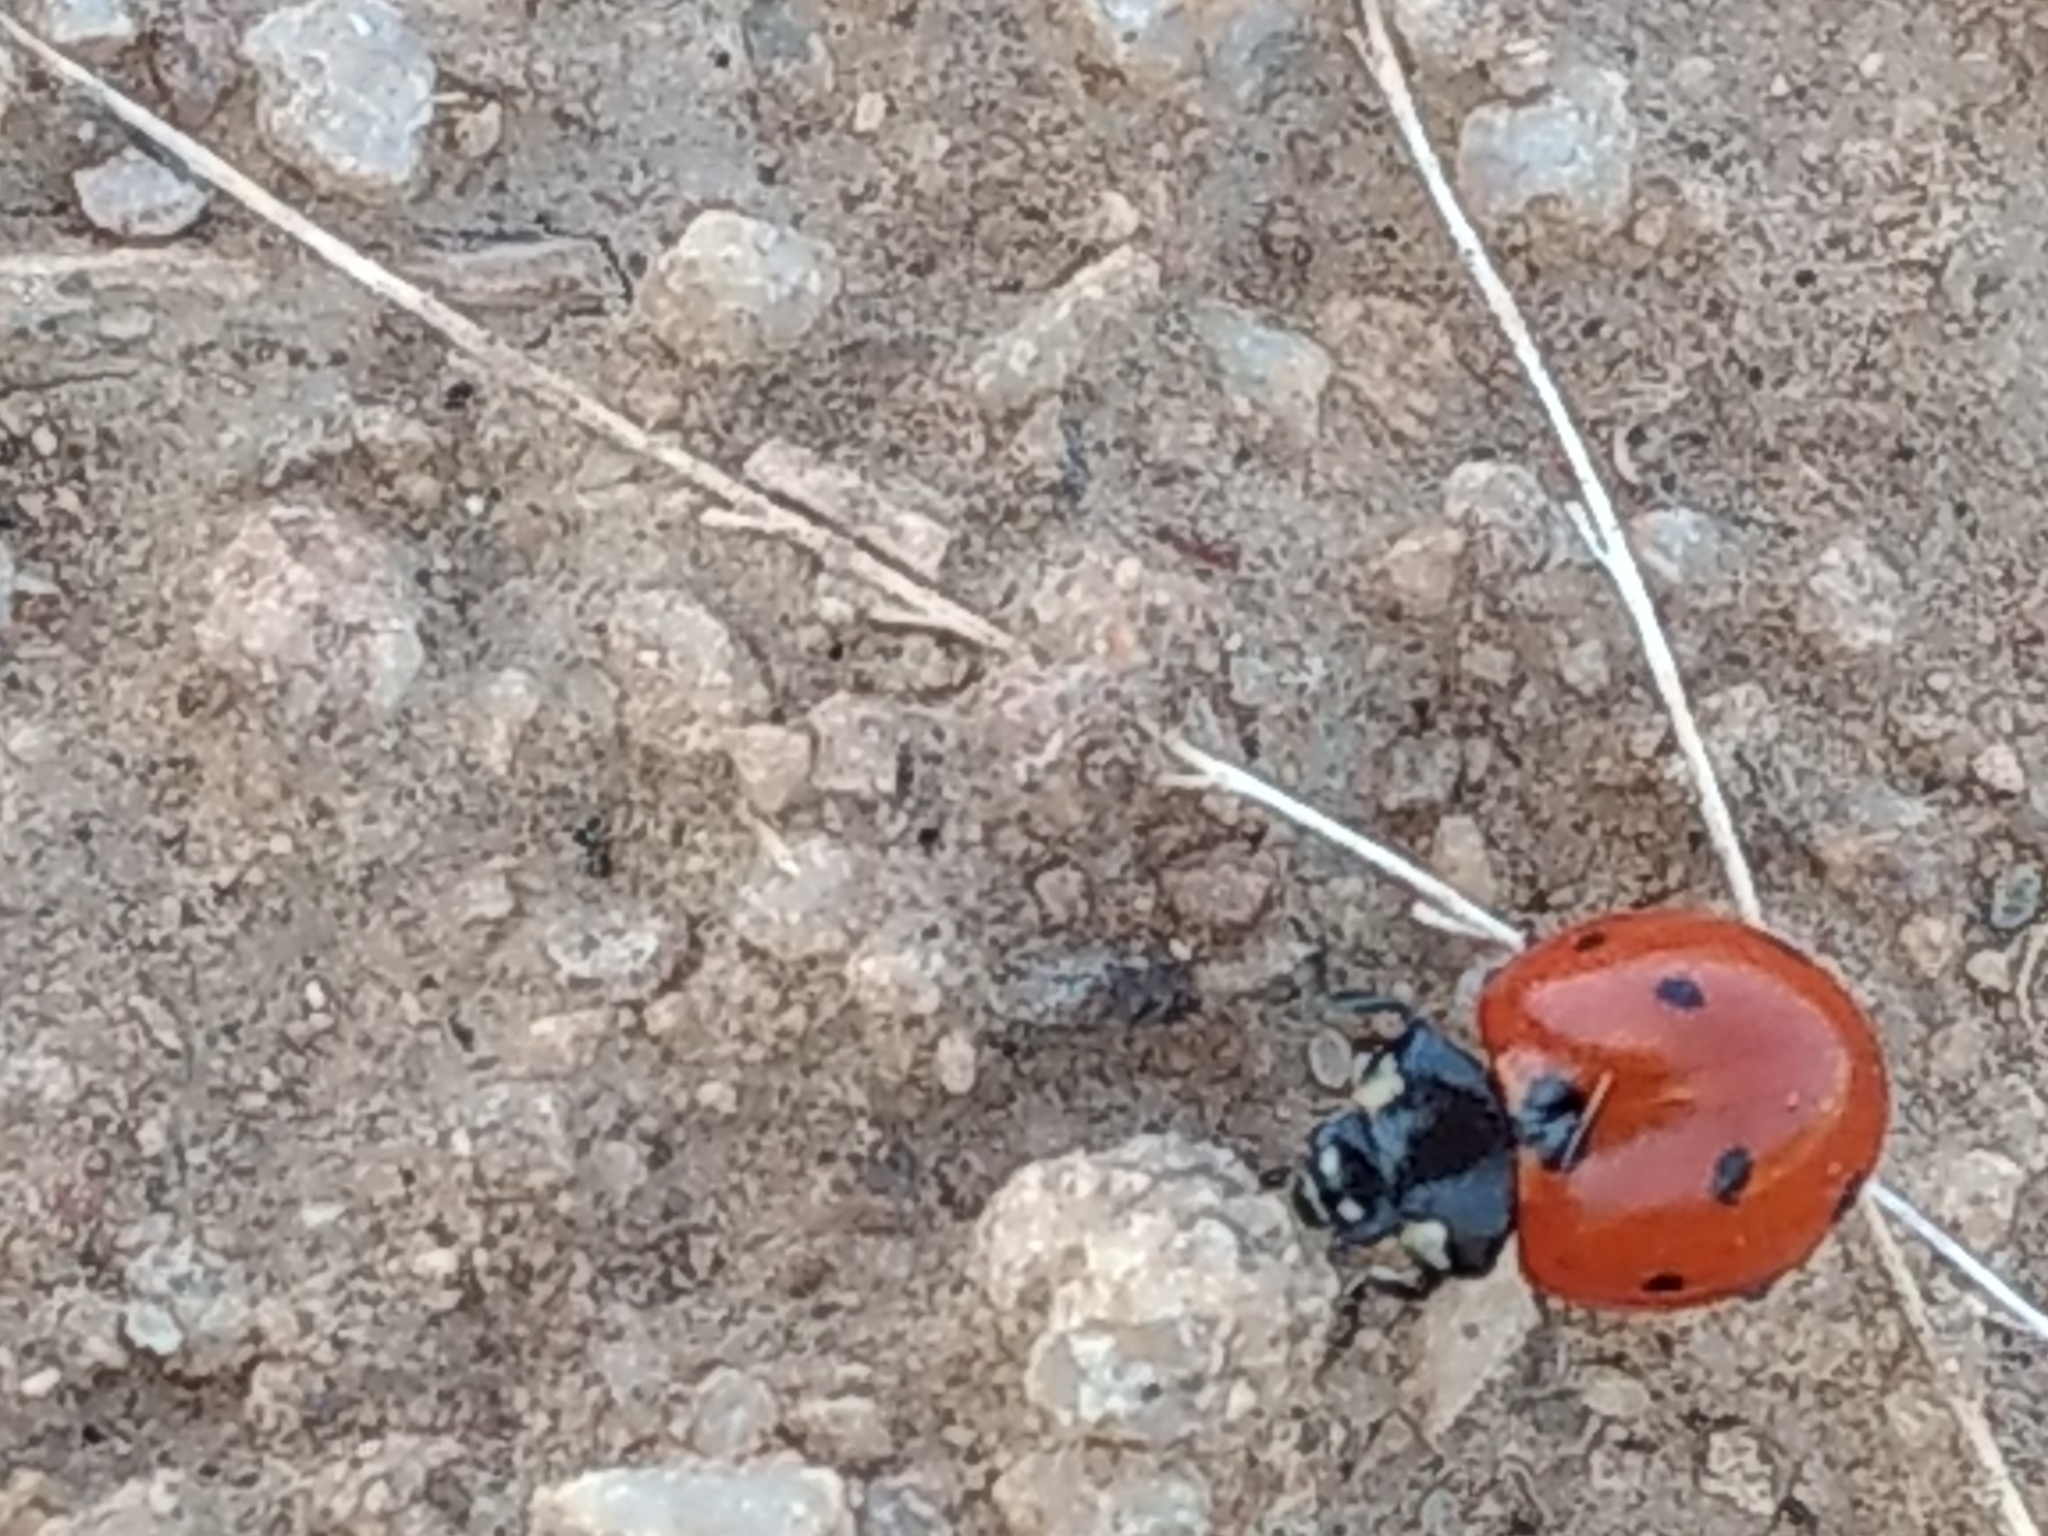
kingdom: Animalia
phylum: Arthropoda
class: Insecta
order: Coleoptera
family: Coccinellidae
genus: Coccinella
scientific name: Coccinella septempunctata
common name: Sevenspotted lady beetle
